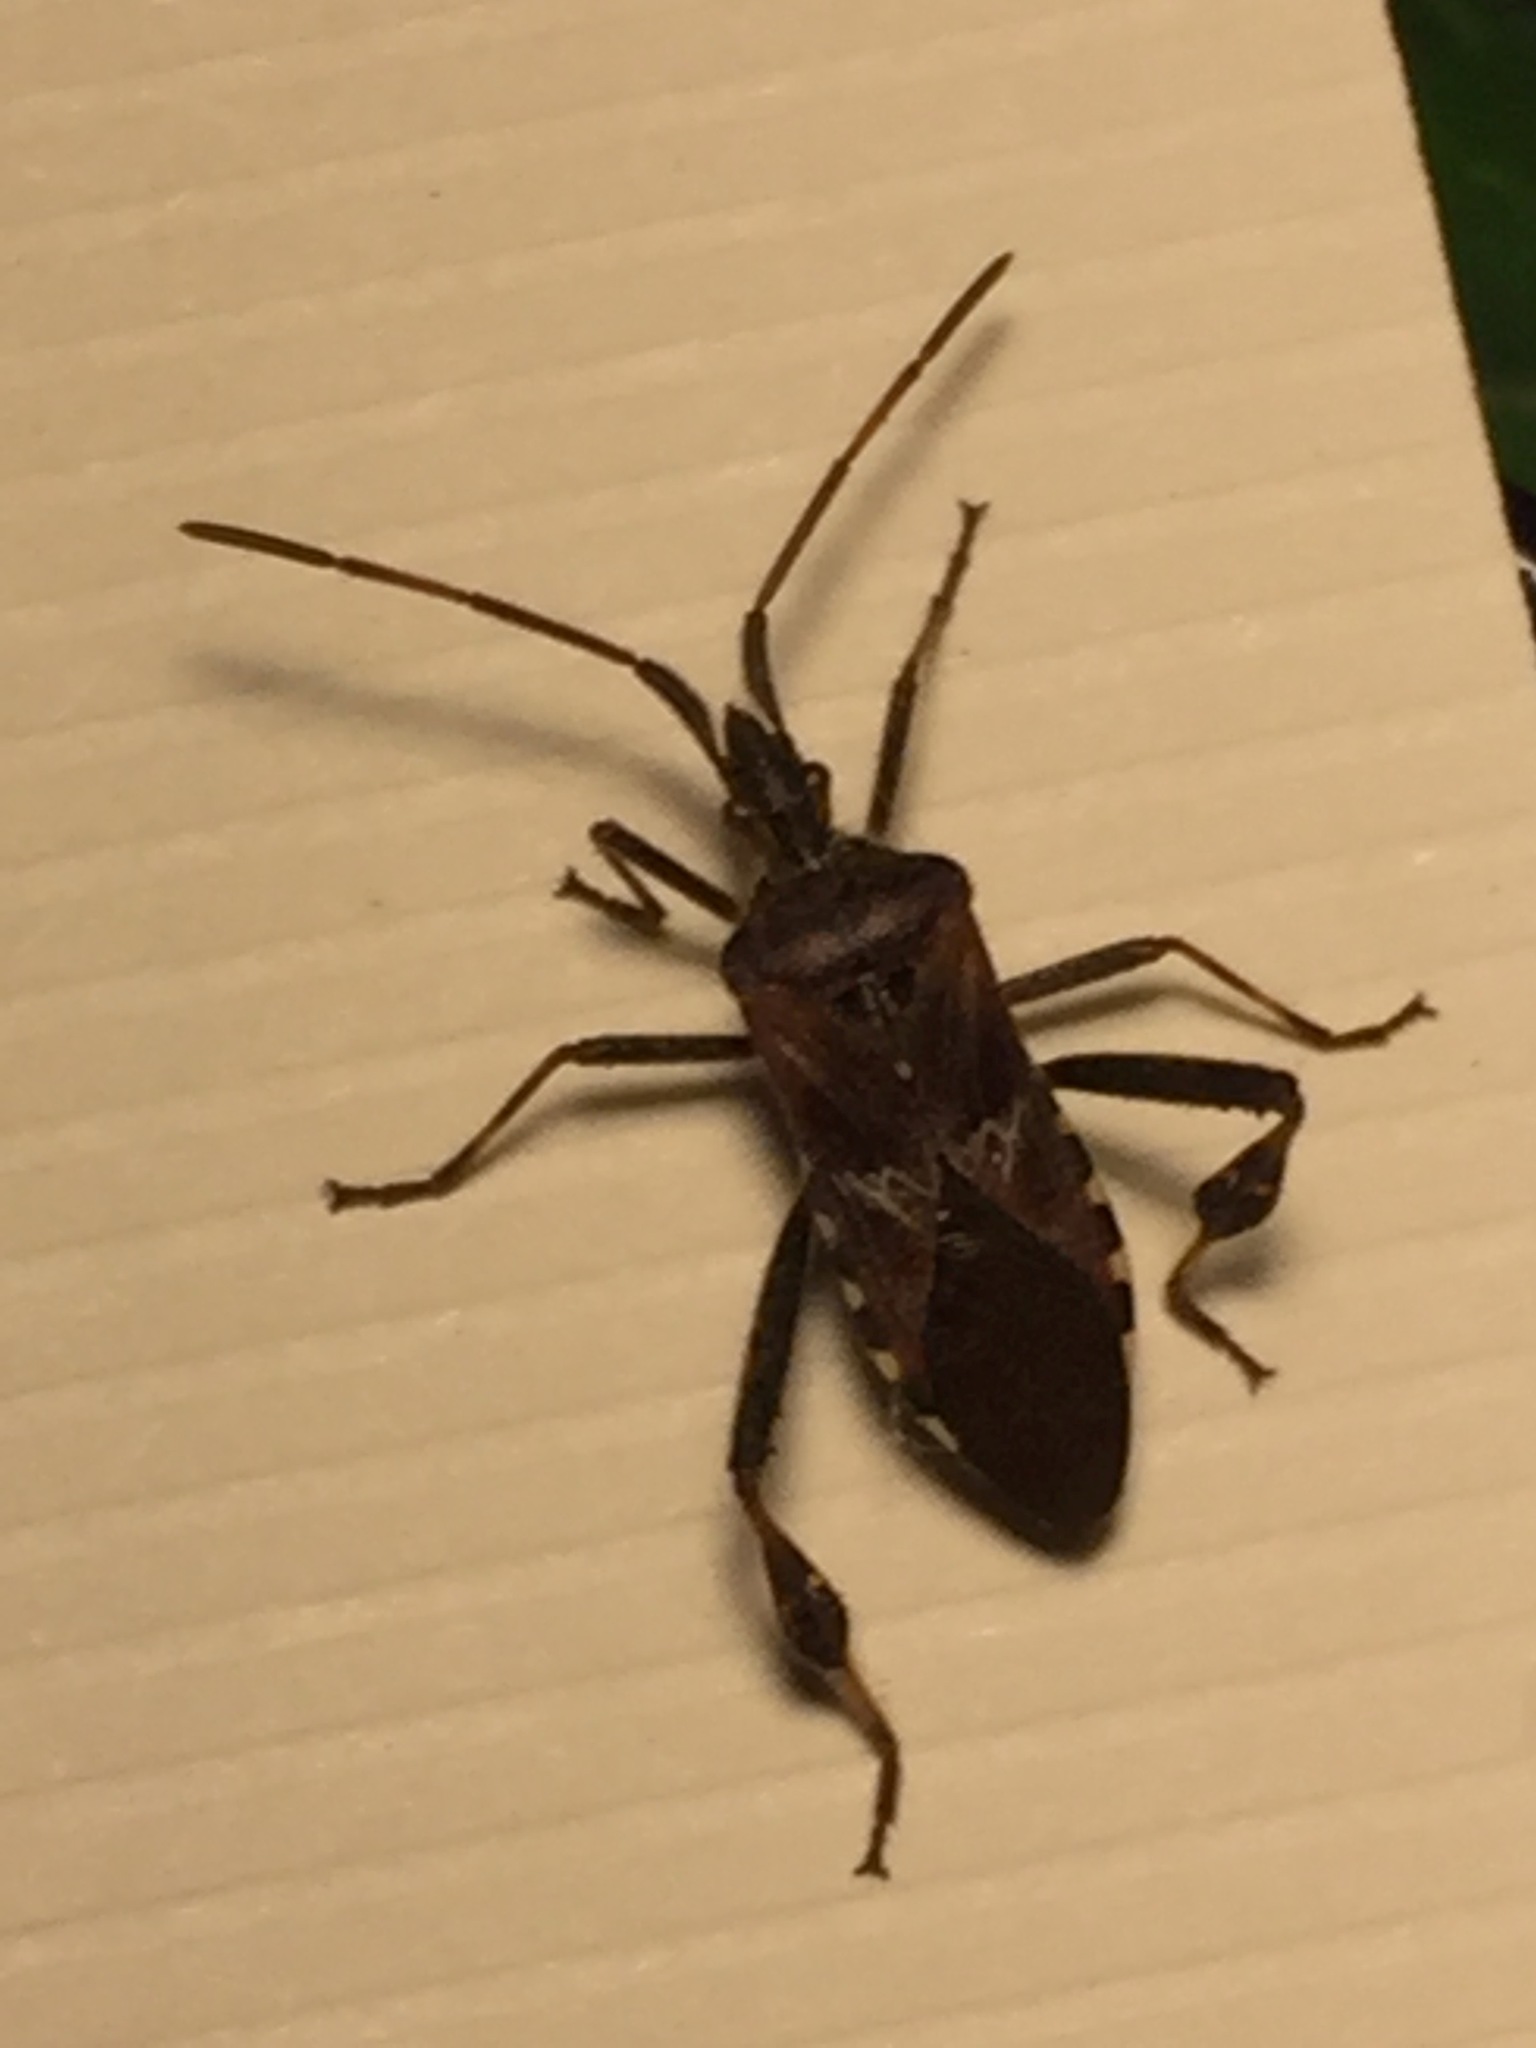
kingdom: Animalia
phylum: Arthropoda
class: Insecta
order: Hemiptera
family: Coreidae
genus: Leptoglossus
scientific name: Leptoglossus occidentalis
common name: Western conifer-seed bug
